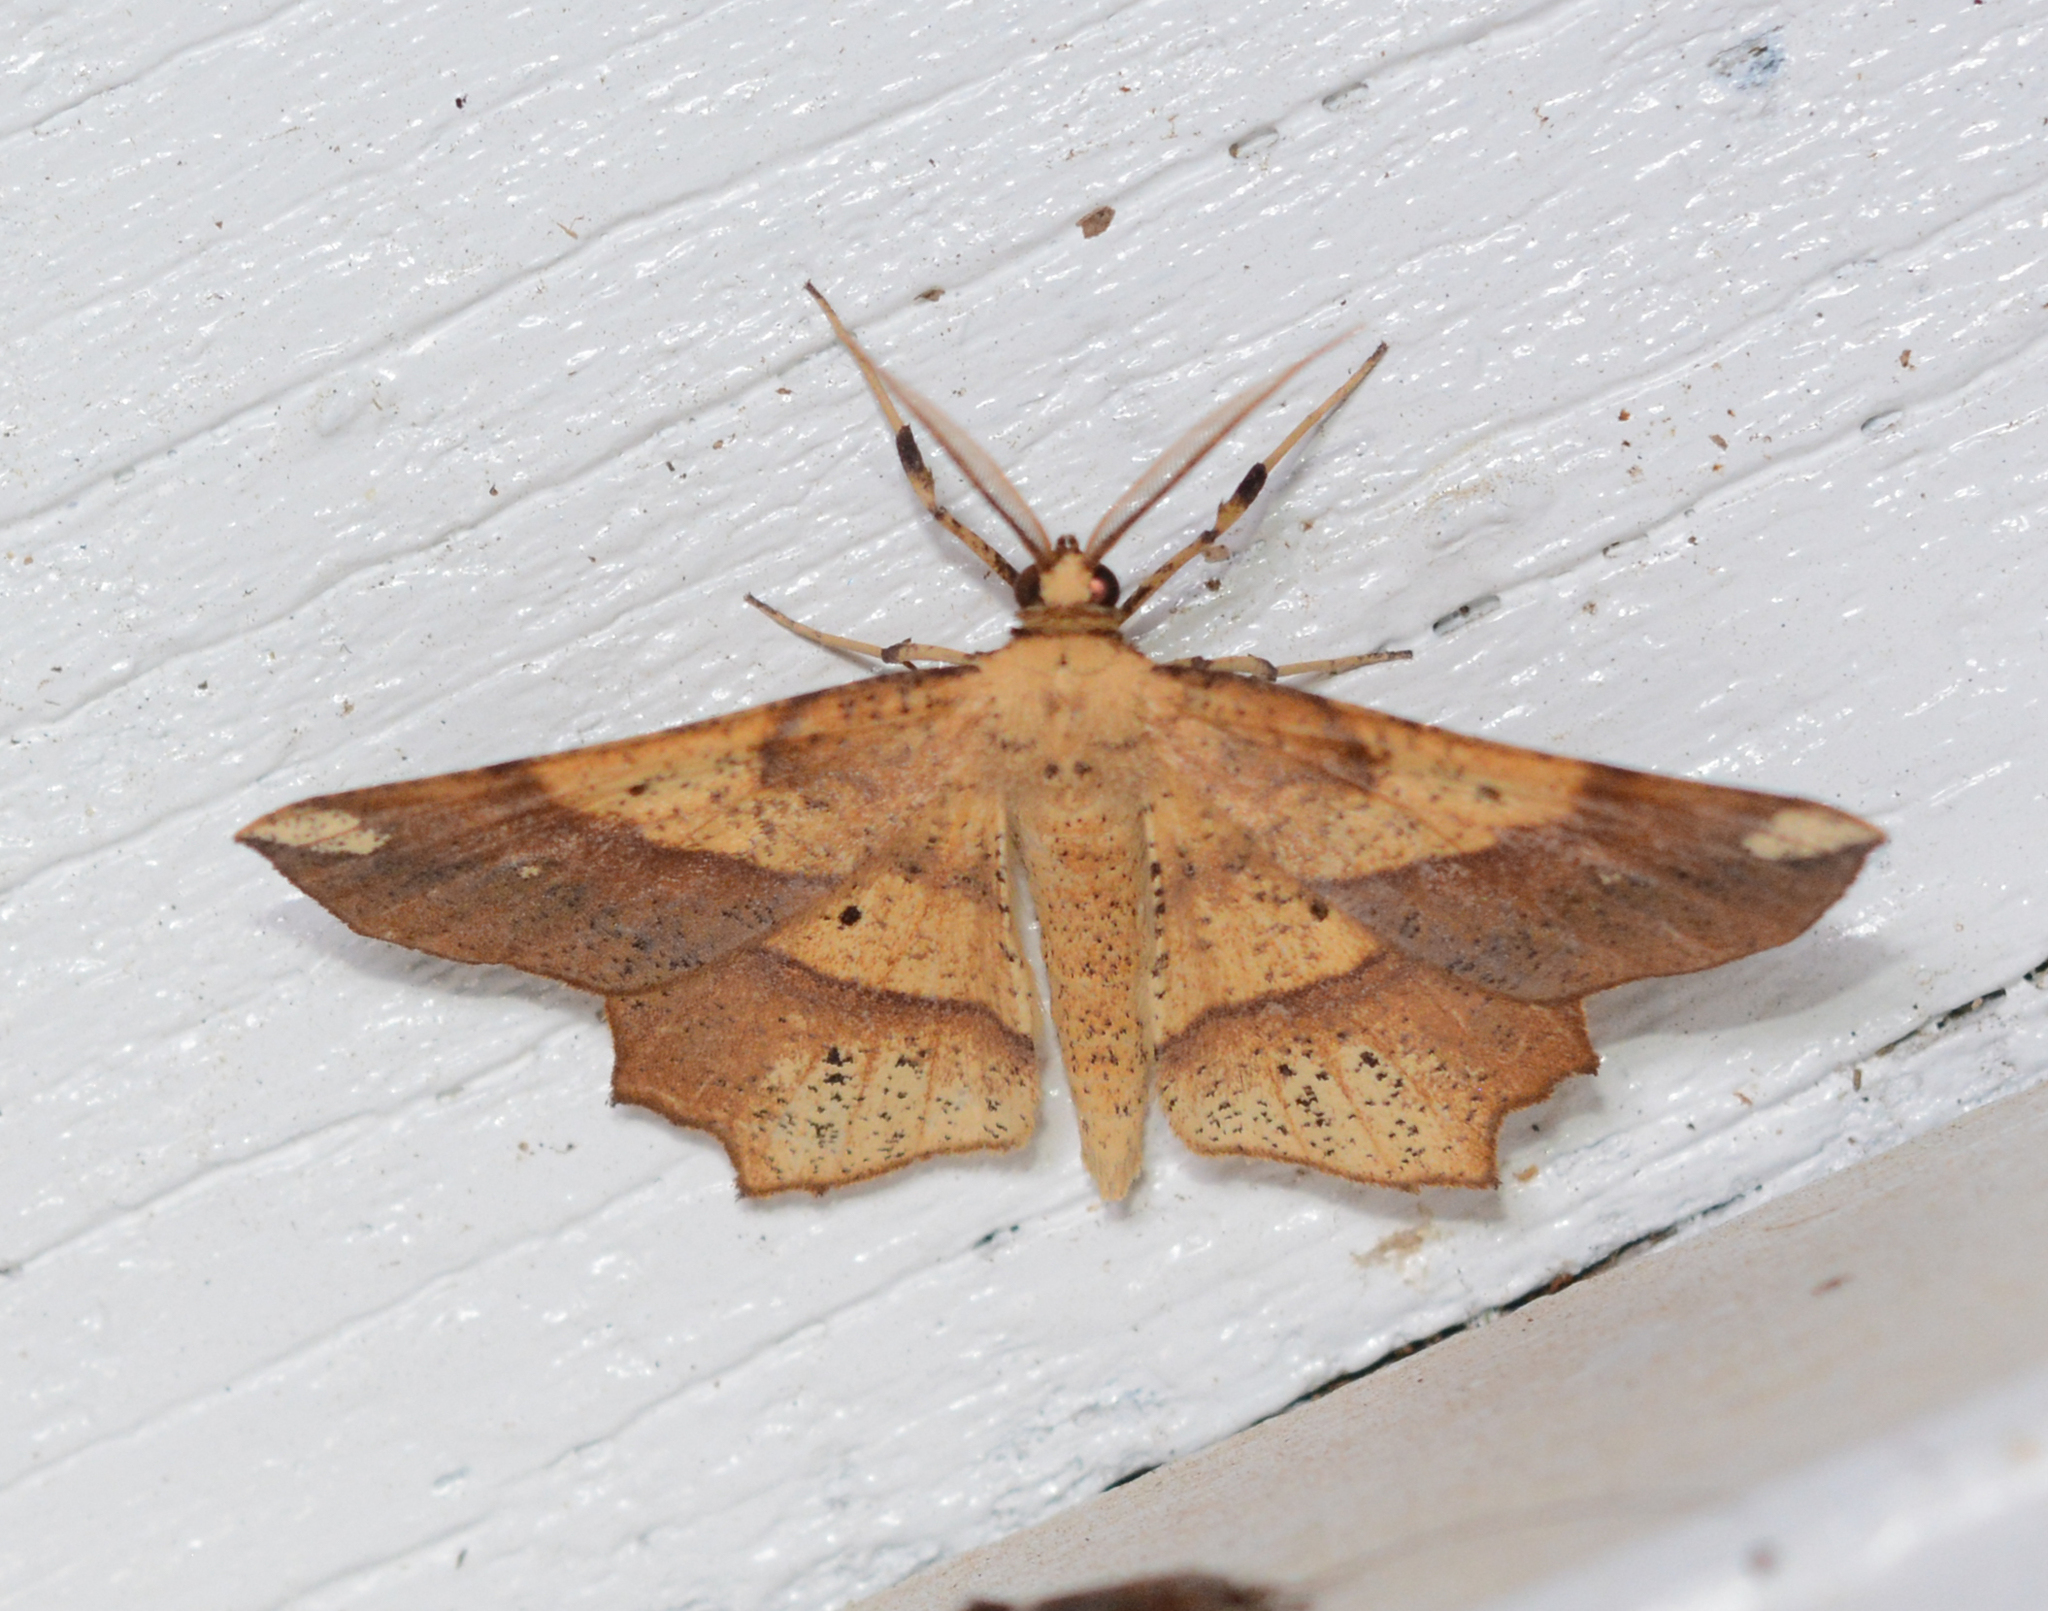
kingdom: Animalia
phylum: Arthropoda
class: Insecta
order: Lepidoptera
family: Geometridae
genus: Euchlaena
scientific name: Euchlaena amoenaria
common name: Deep yellow euchlaena
